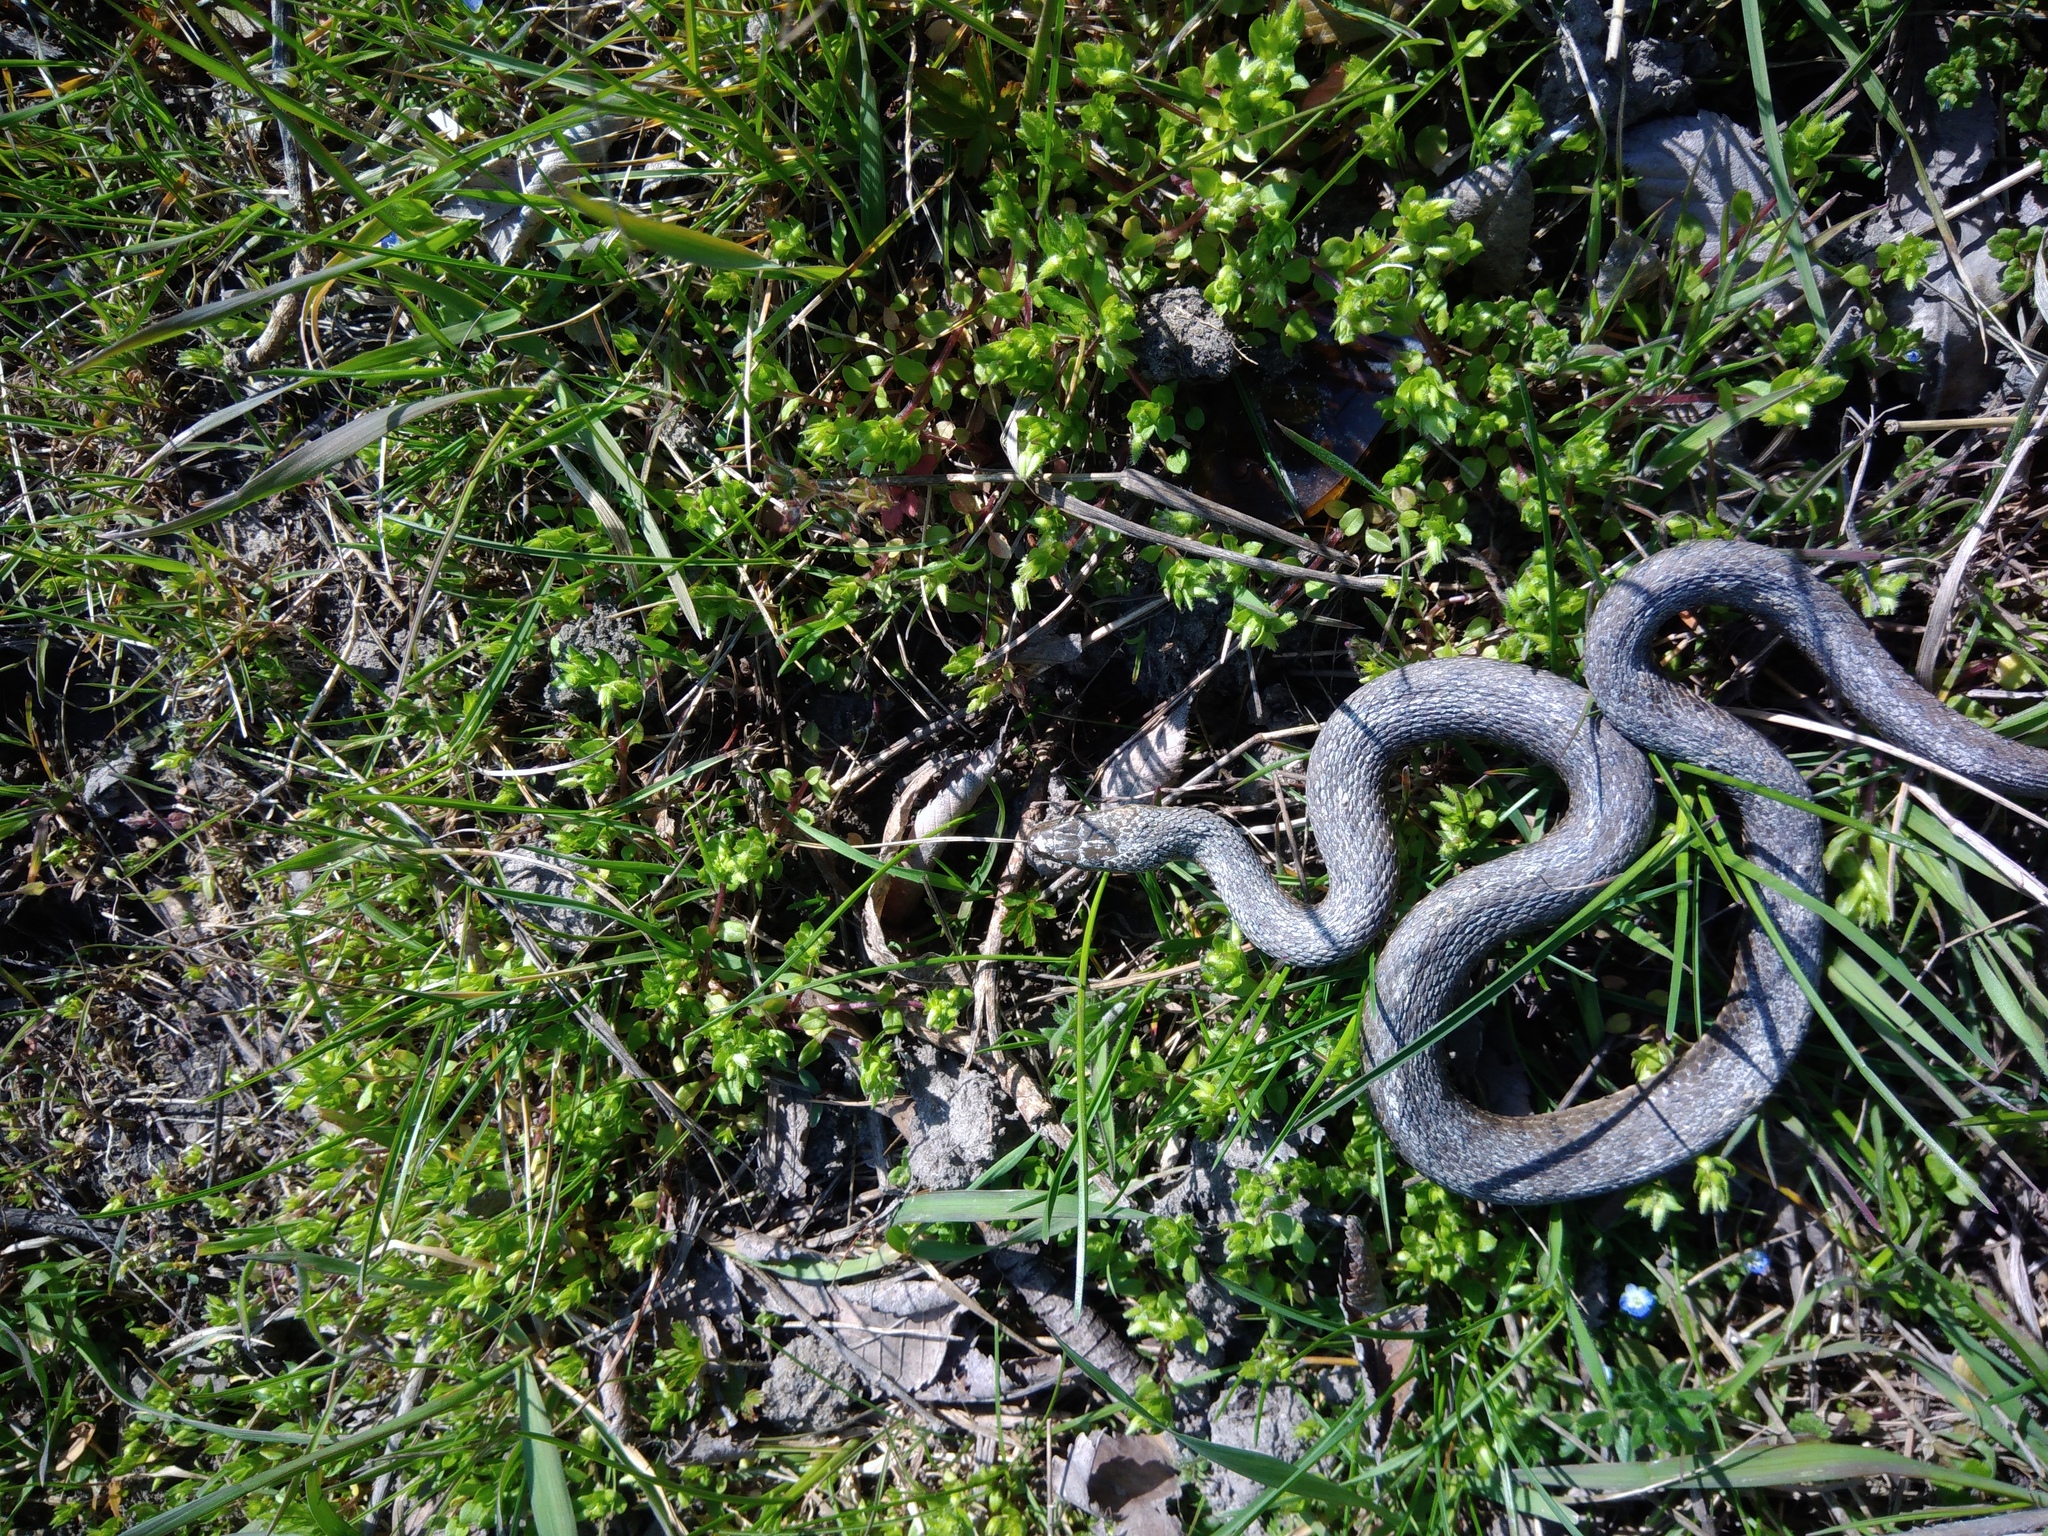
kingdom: Animalia
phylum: Chordata
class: Squamata
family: Colubridae
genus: Natrix
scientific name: Natrix tessellata
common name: Dice snake
